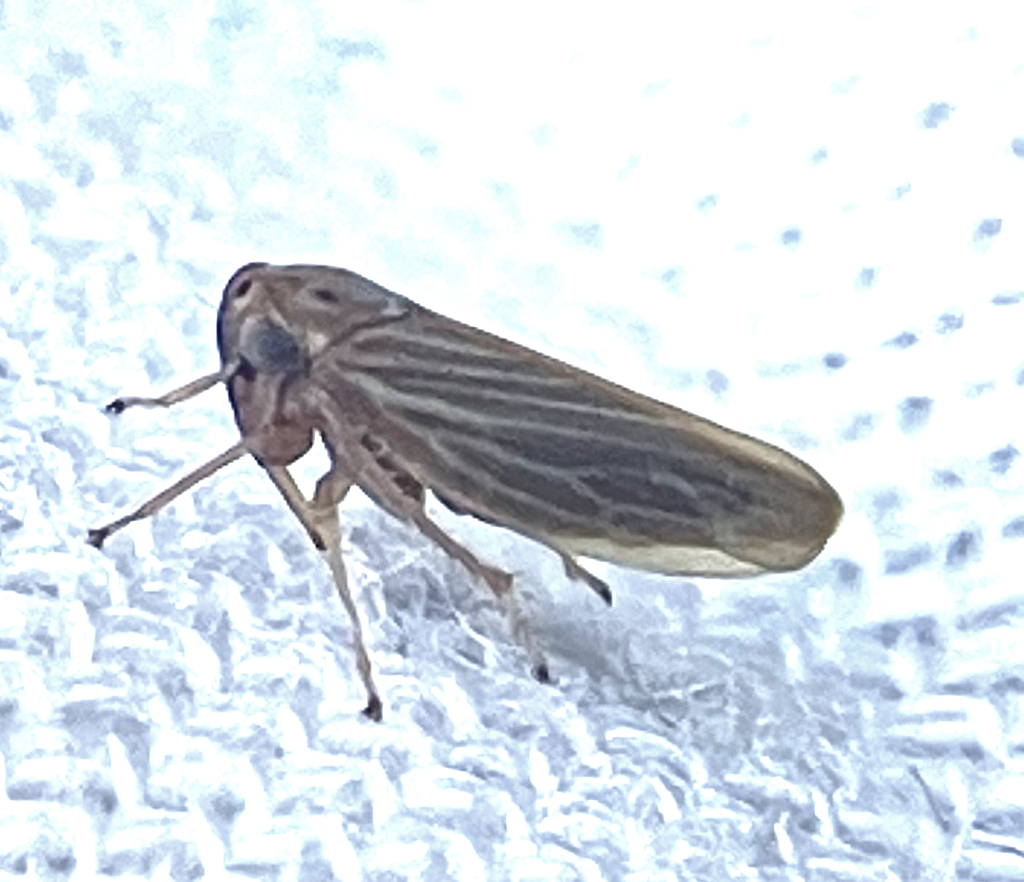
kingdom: Animalia
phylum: Arthropoda
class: Insecta
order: Hemiptera
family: Cicadellidae
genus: Agallia
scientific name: Agallia constricta
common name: The constricted leafhopper
